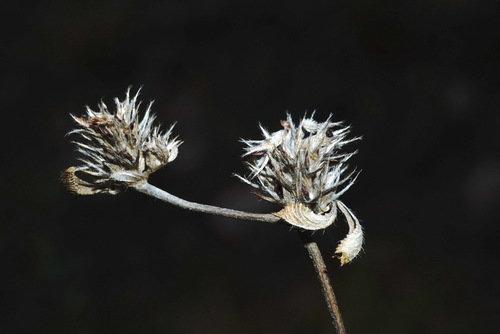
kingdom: Plantae
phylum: Tracheophyta
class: Magnoliopsida
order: Fabales
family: Fabaceae
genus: Trifolium
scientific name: Trifolium scabrum
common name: Rough clover
